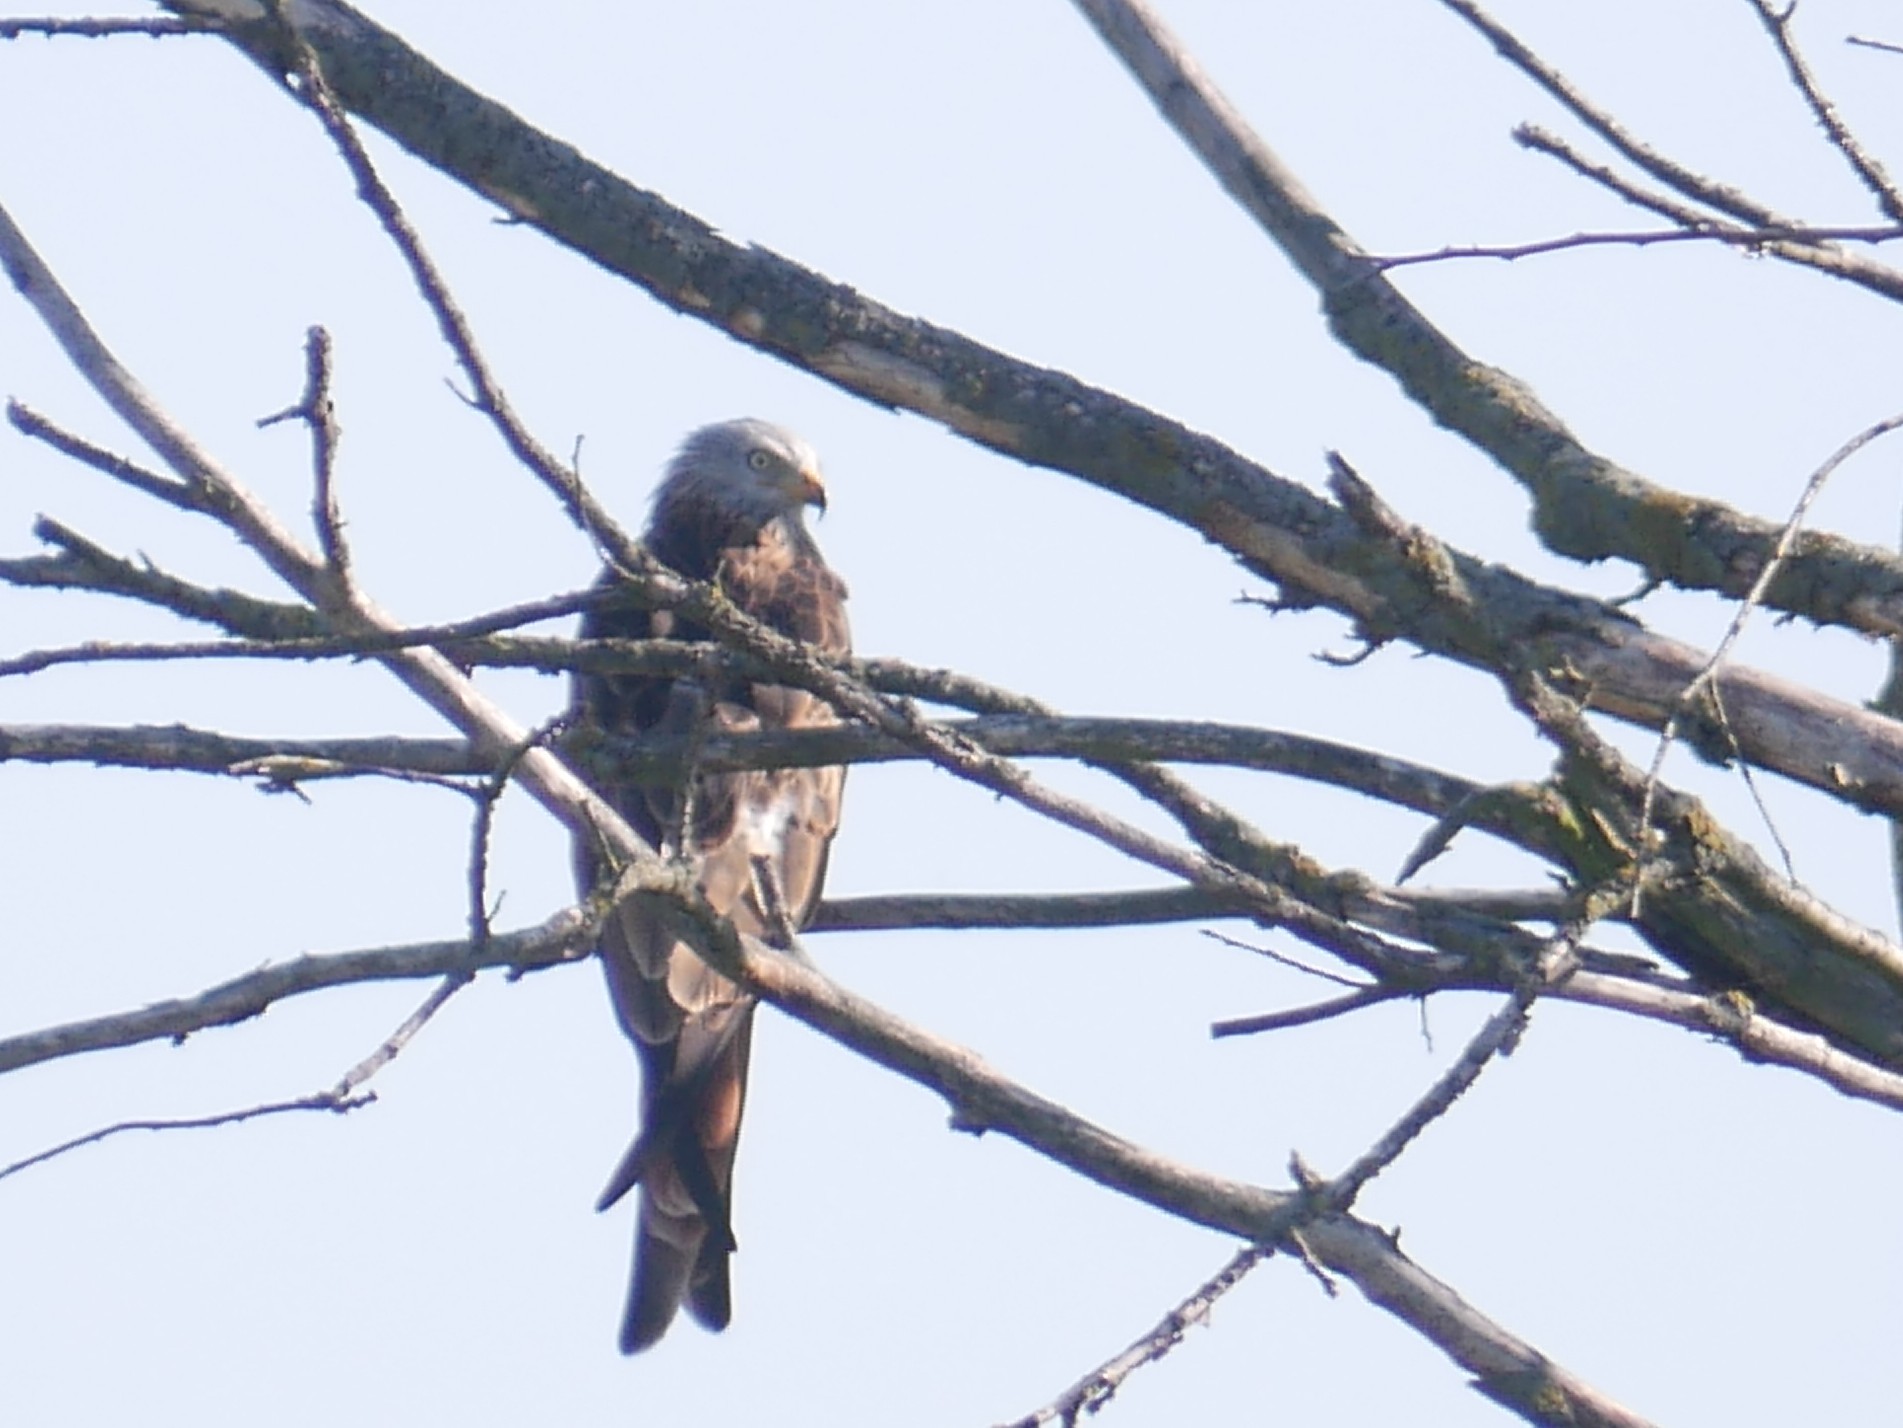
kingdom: Animalia
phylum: Chordata
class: Aves
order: Accipitriformes
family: Accipitridae
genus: Milvus
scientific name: Milvus milvus
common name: Red kite
